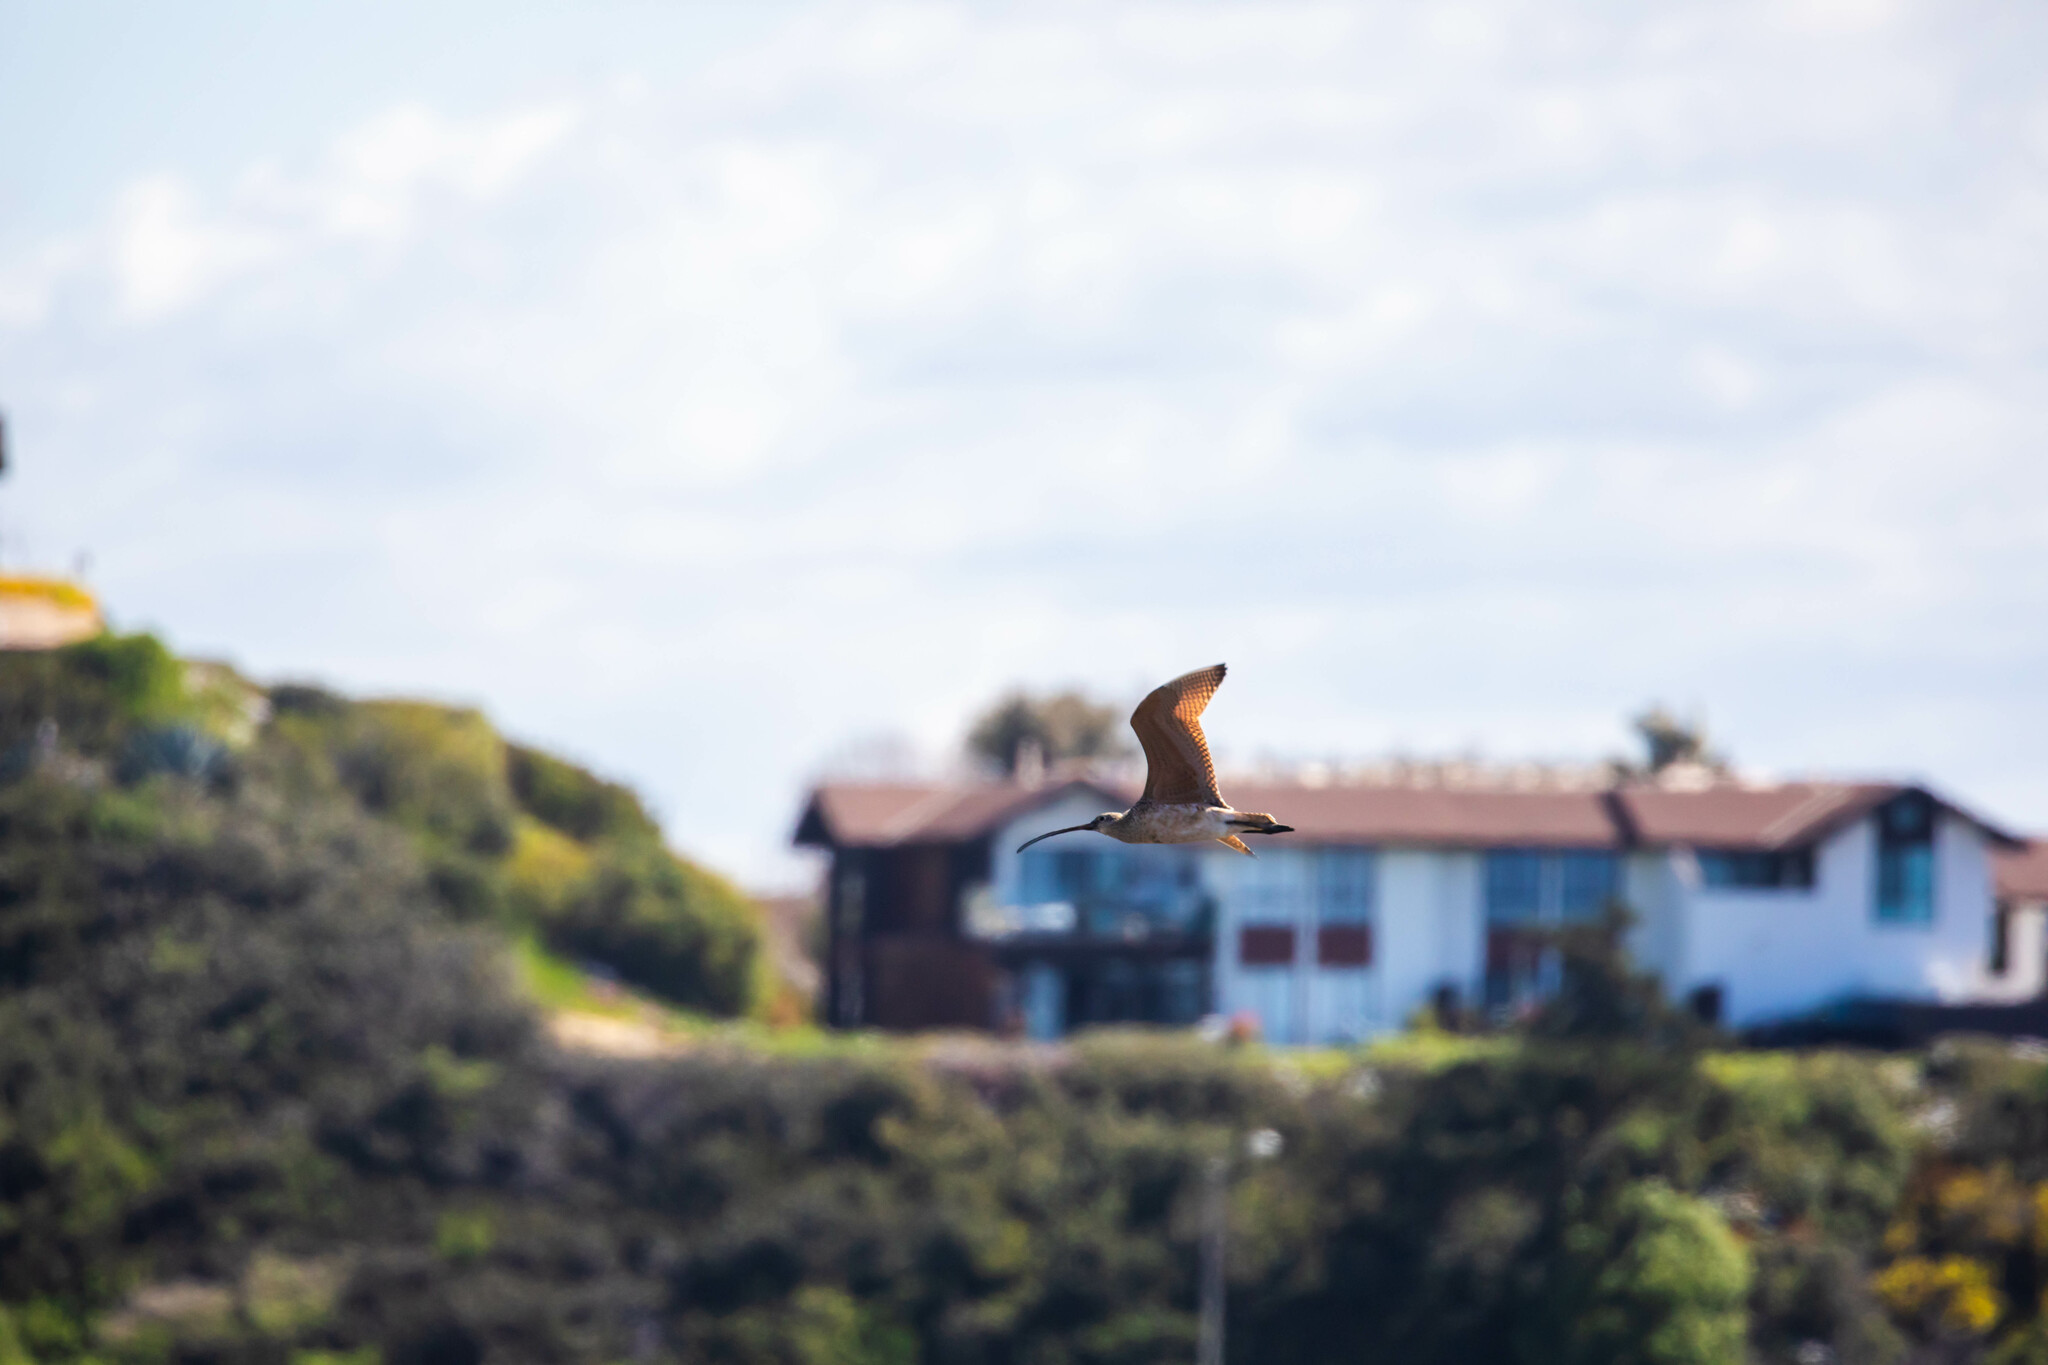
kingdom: Animalia
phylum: Chordata
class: Aves
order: Charadriiformes
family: Scolopacidae
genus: Numenius
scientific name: Numenius americanus
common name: Long-billed curlew
